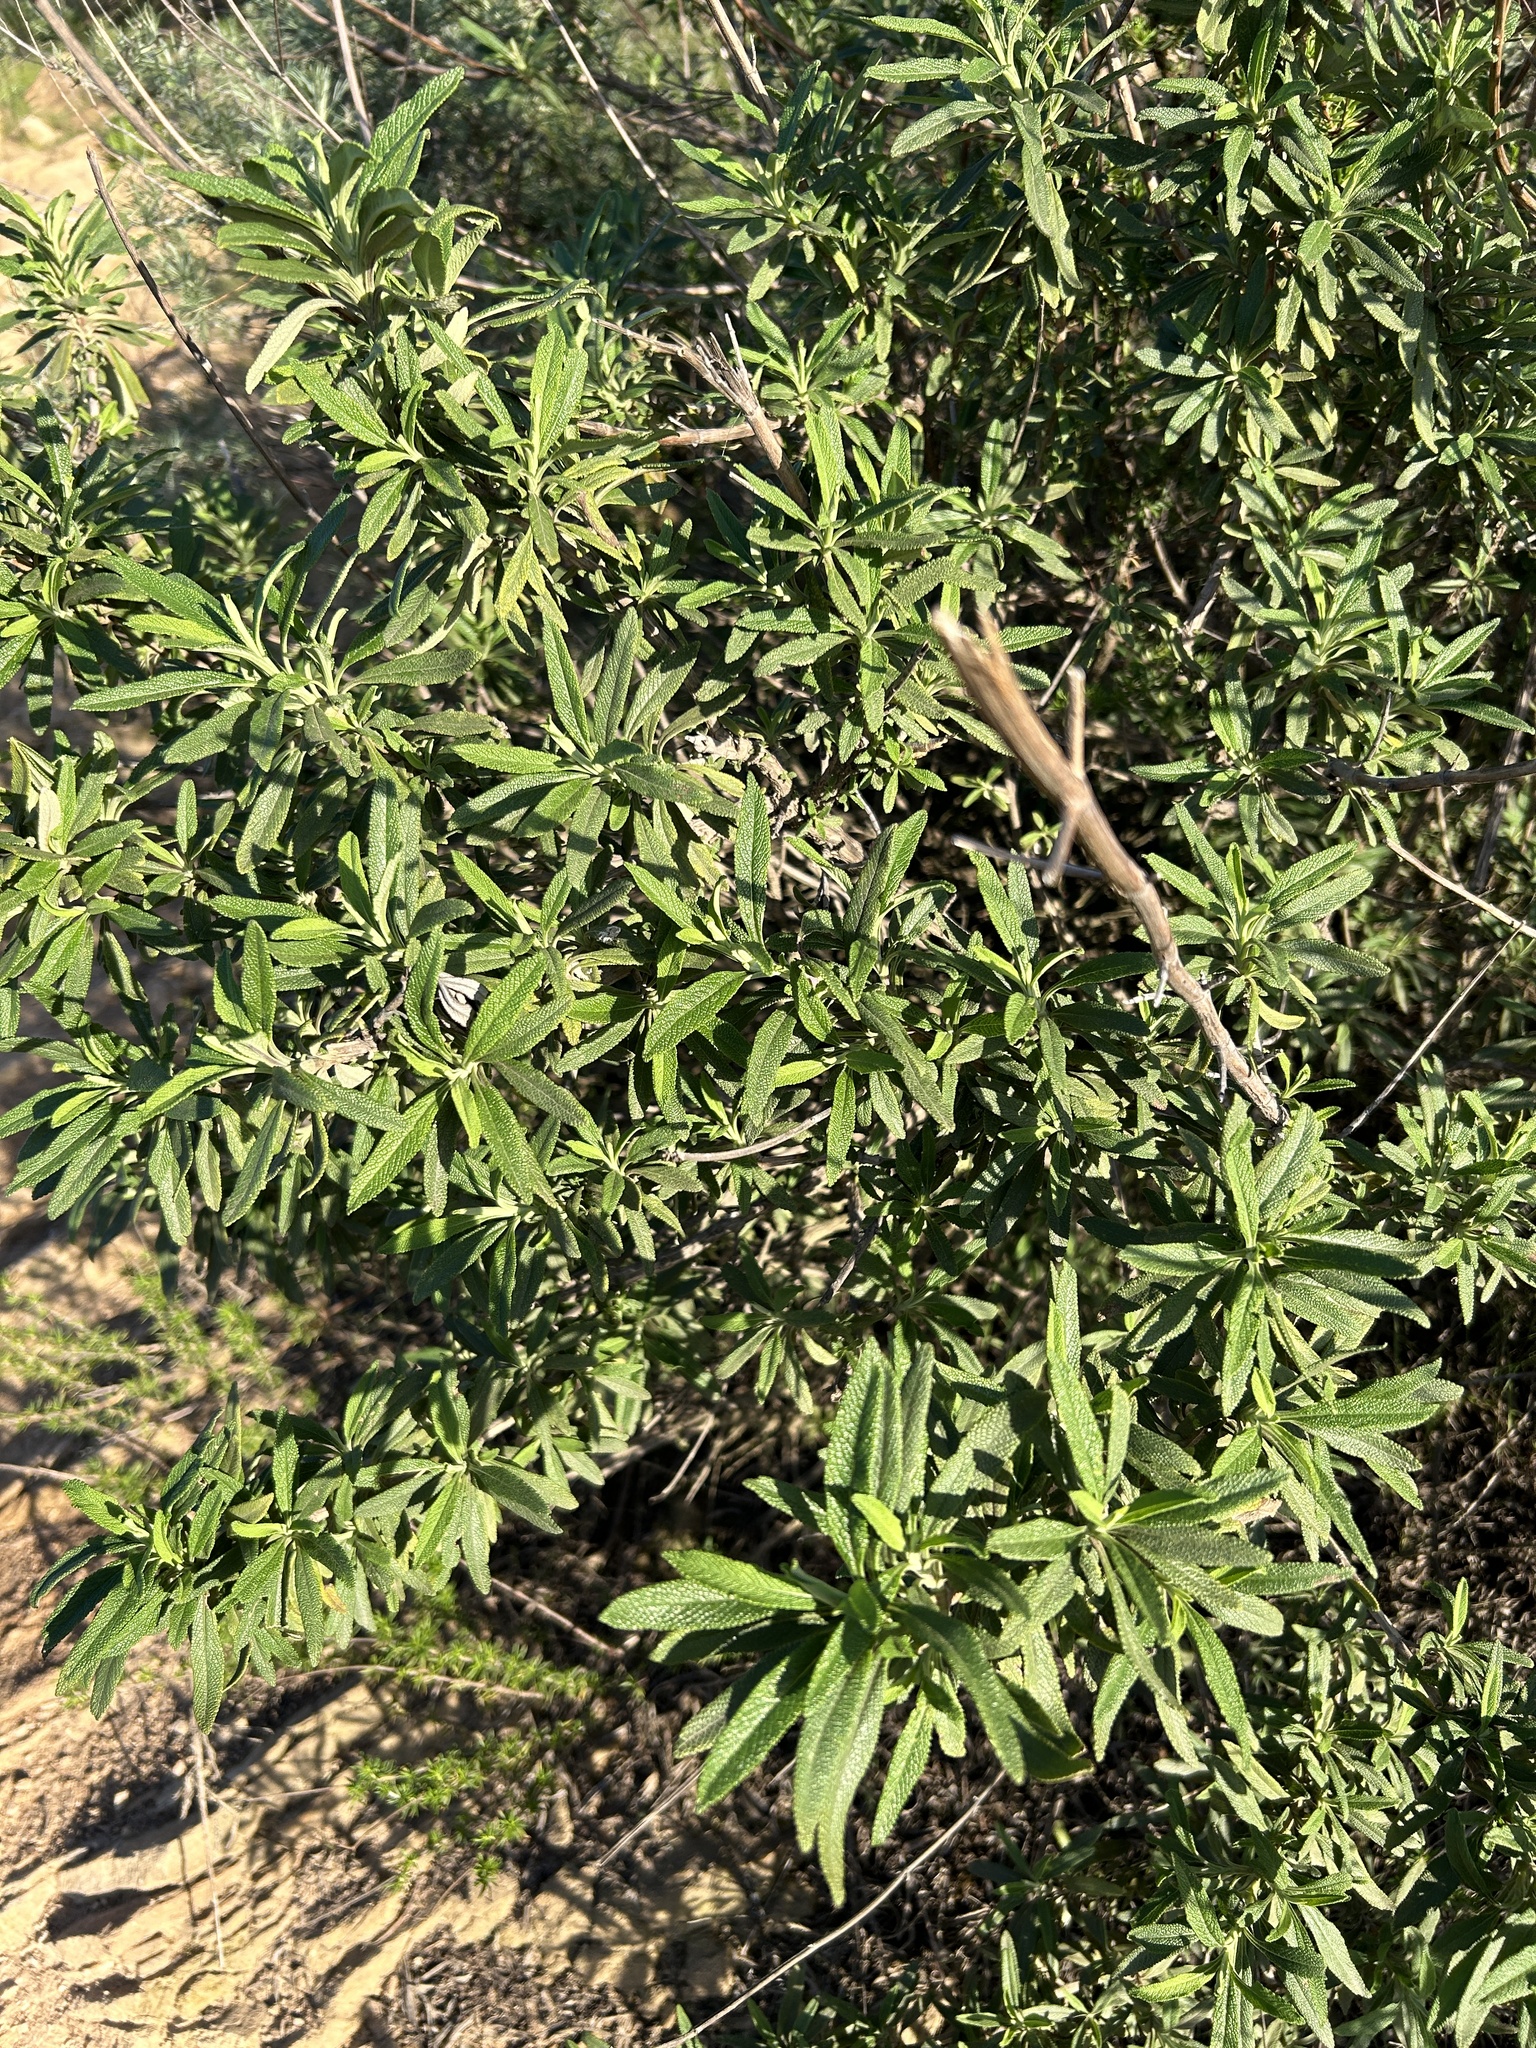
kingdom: Plantae
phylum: Tracheophyta
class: Magnoliopsida
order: Lamiales
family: Lamiaceae
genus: Salvia
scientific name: Salvia mellifera
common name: Black sage
